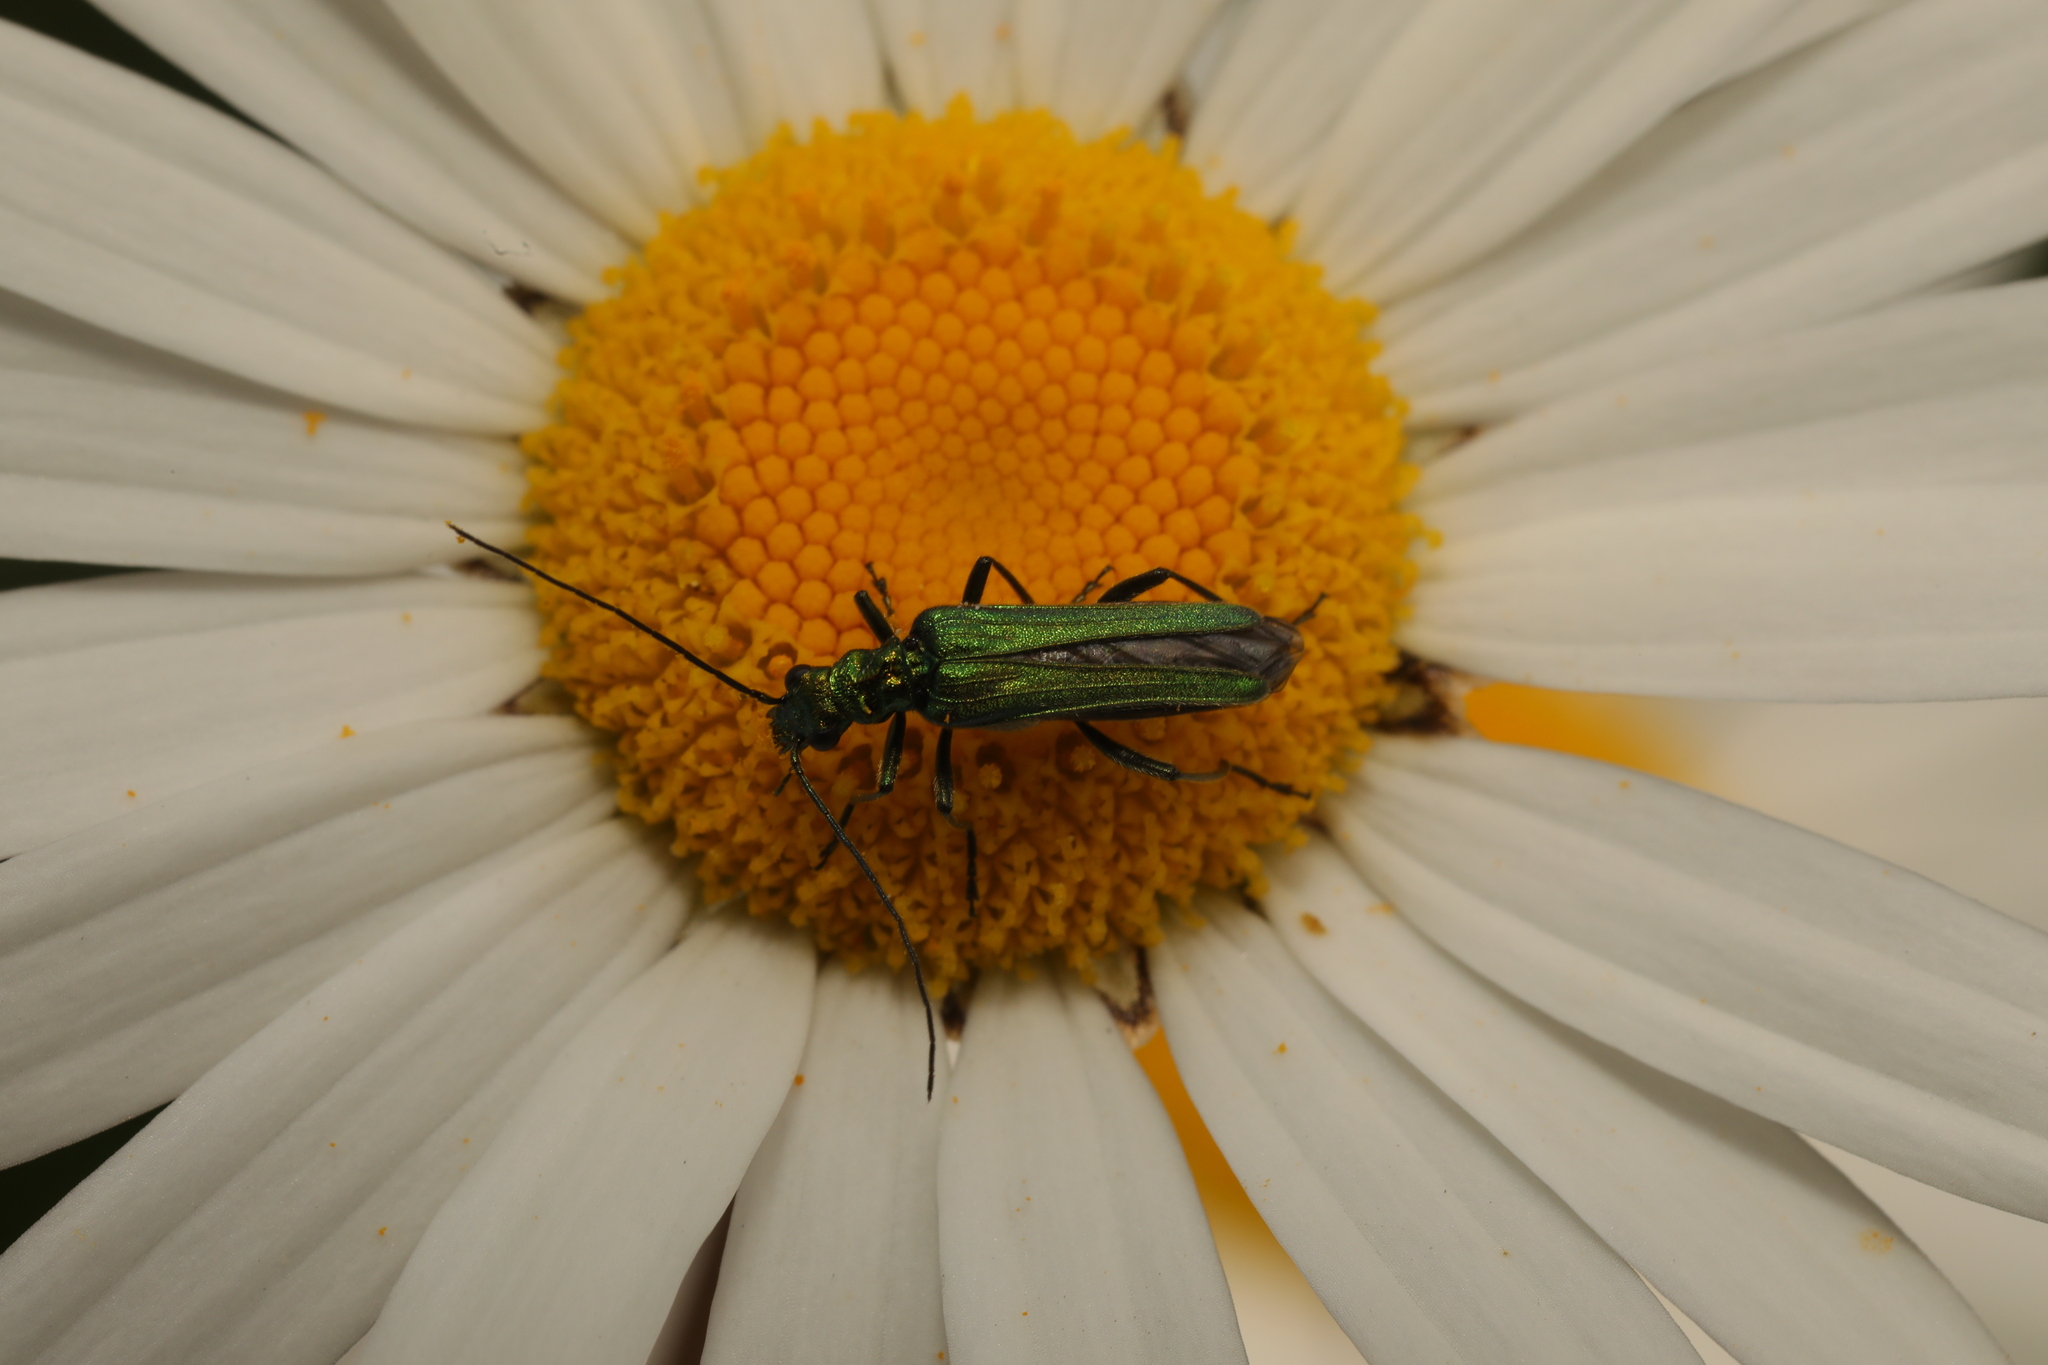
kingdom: Animalia
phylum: Arthropoda
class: Insecta
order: Coleoptera
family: Oedemeridae
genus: Oedemera
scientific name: Oedemera nobilis
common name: Swollen-thighed beetle
